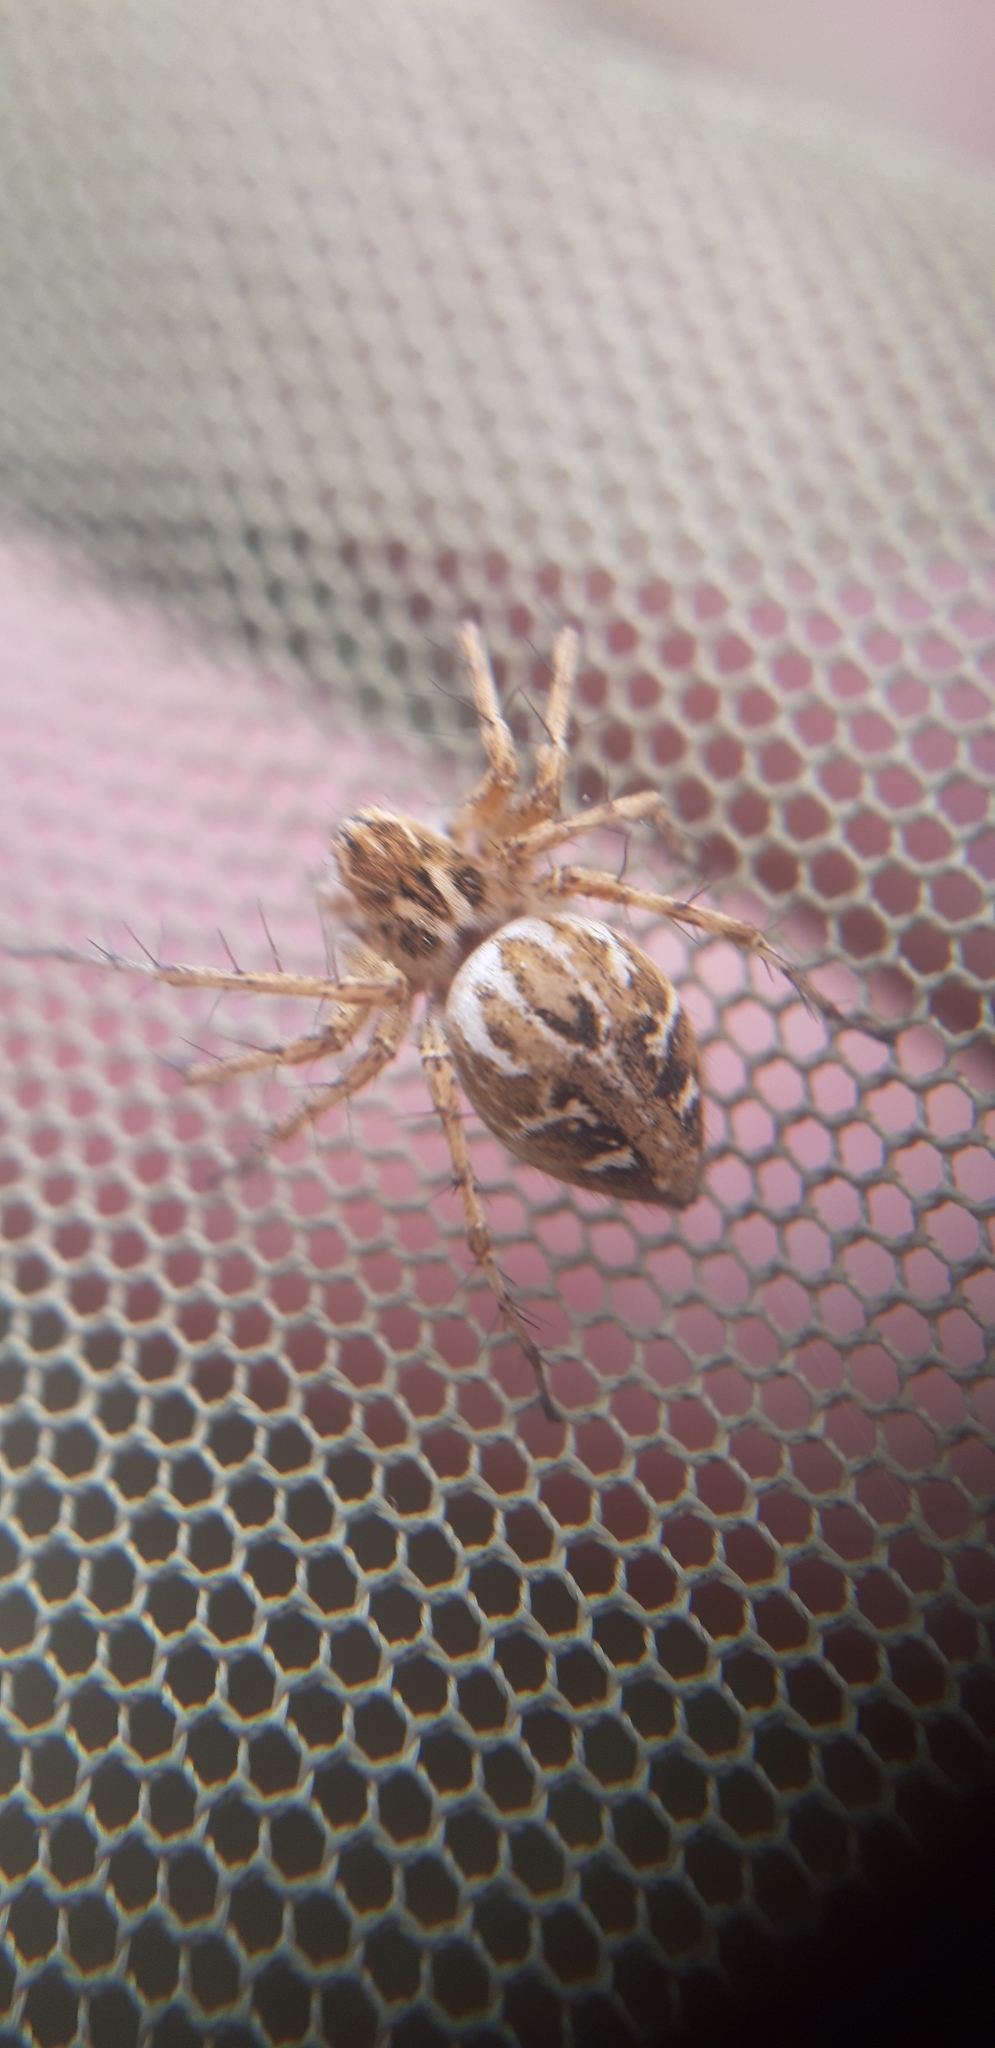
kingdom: Animalia
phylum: Arthropoda
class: Arachnida
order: Araneae
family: Oxyopidae
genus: Oxyopes
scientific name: Oxyopes heterophthalmus
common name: Lynx spider
